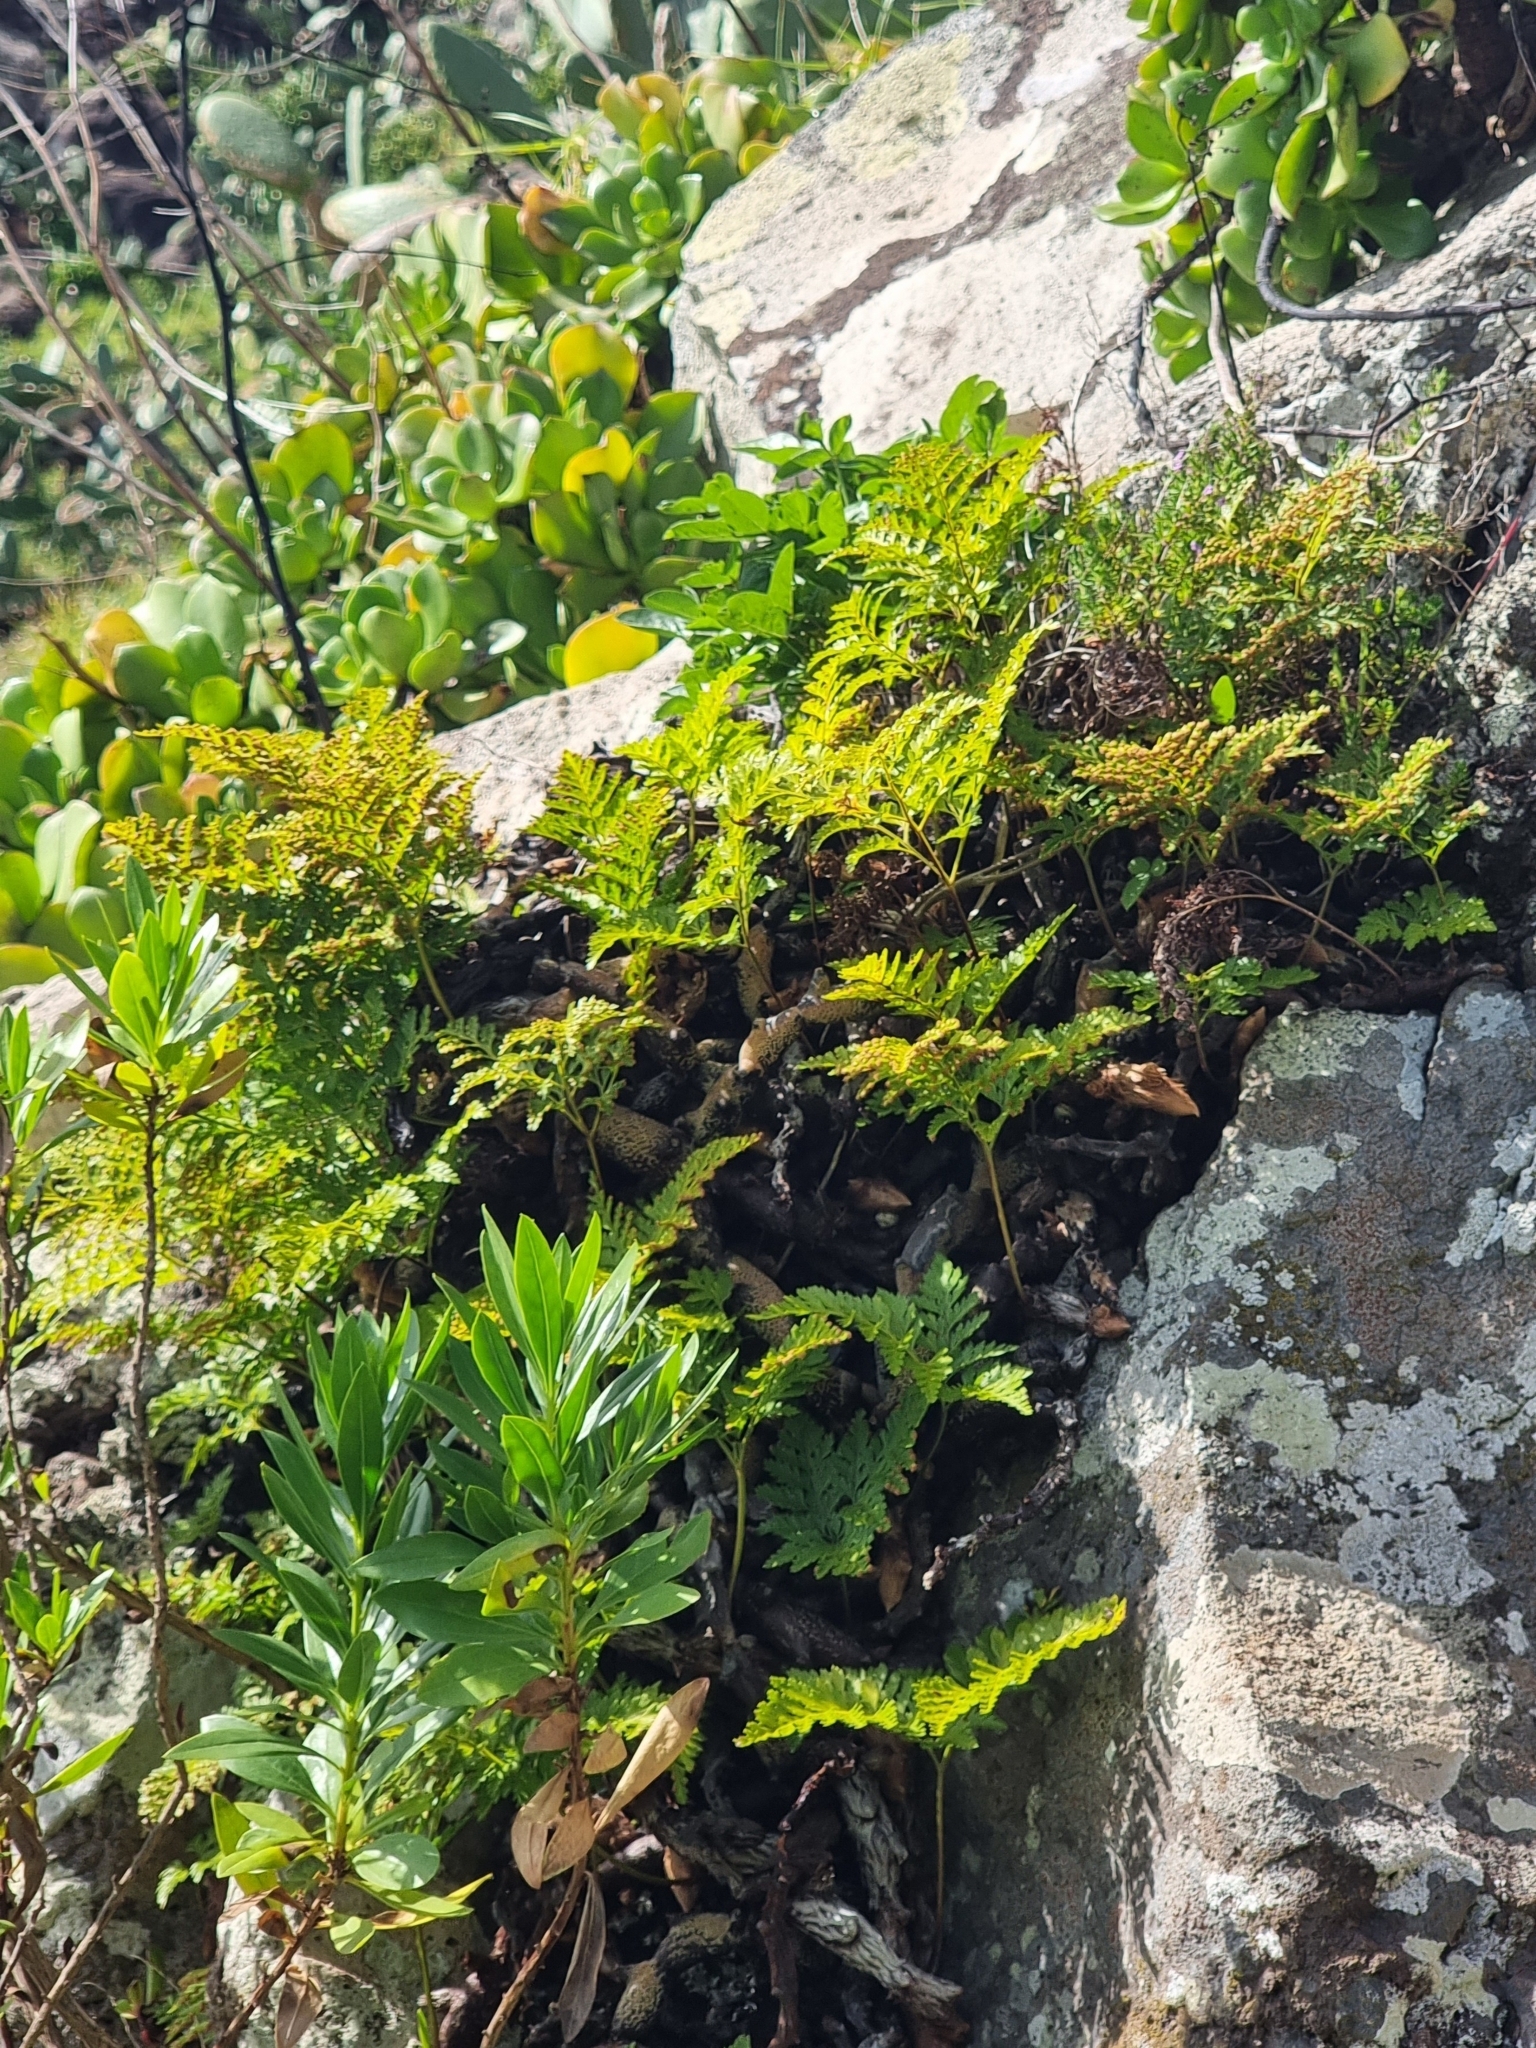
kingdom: Plantae
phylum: Tracheophyta
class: Polypodiopsida
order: Polypodiales
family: Davalliaceae
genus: Davallia
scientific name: Davallia canariensis
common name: Hare's-foot fern
